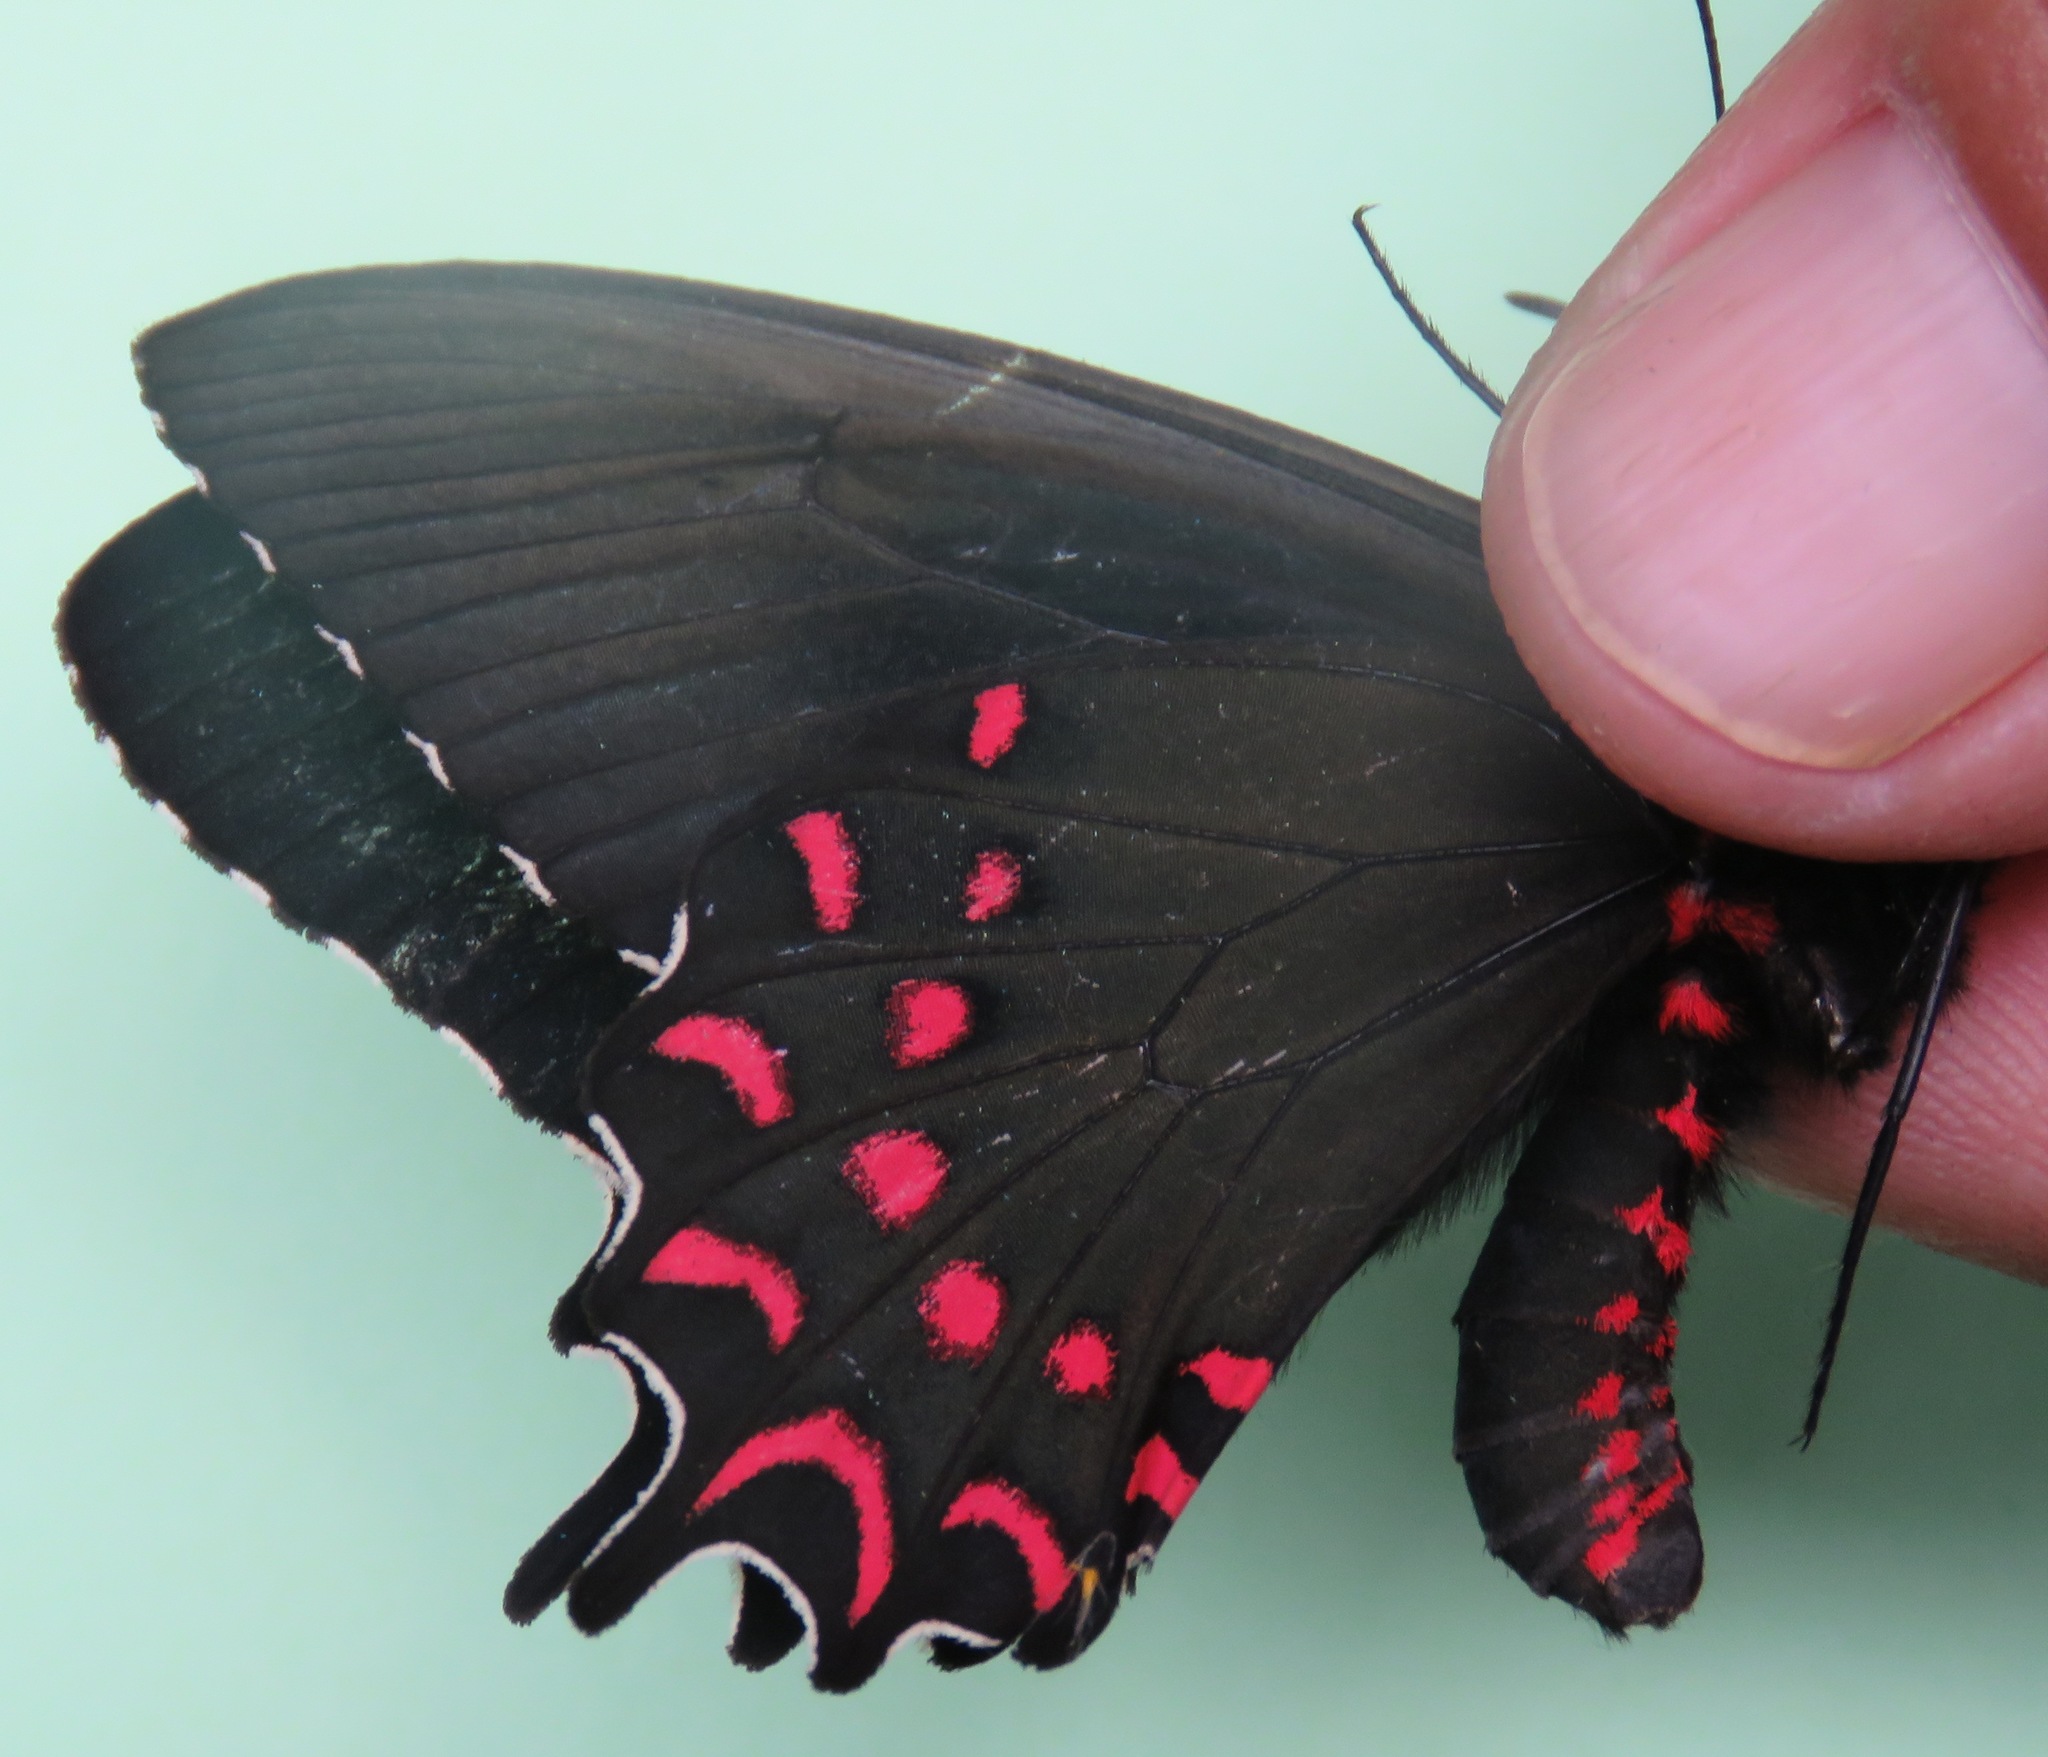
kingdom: Animalia
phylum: Arthropoda
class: Insecta
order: Lepidoptera
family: Papilionidae
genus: Parides
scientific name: Parides photinus
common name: Pink-spotted cattleheart
